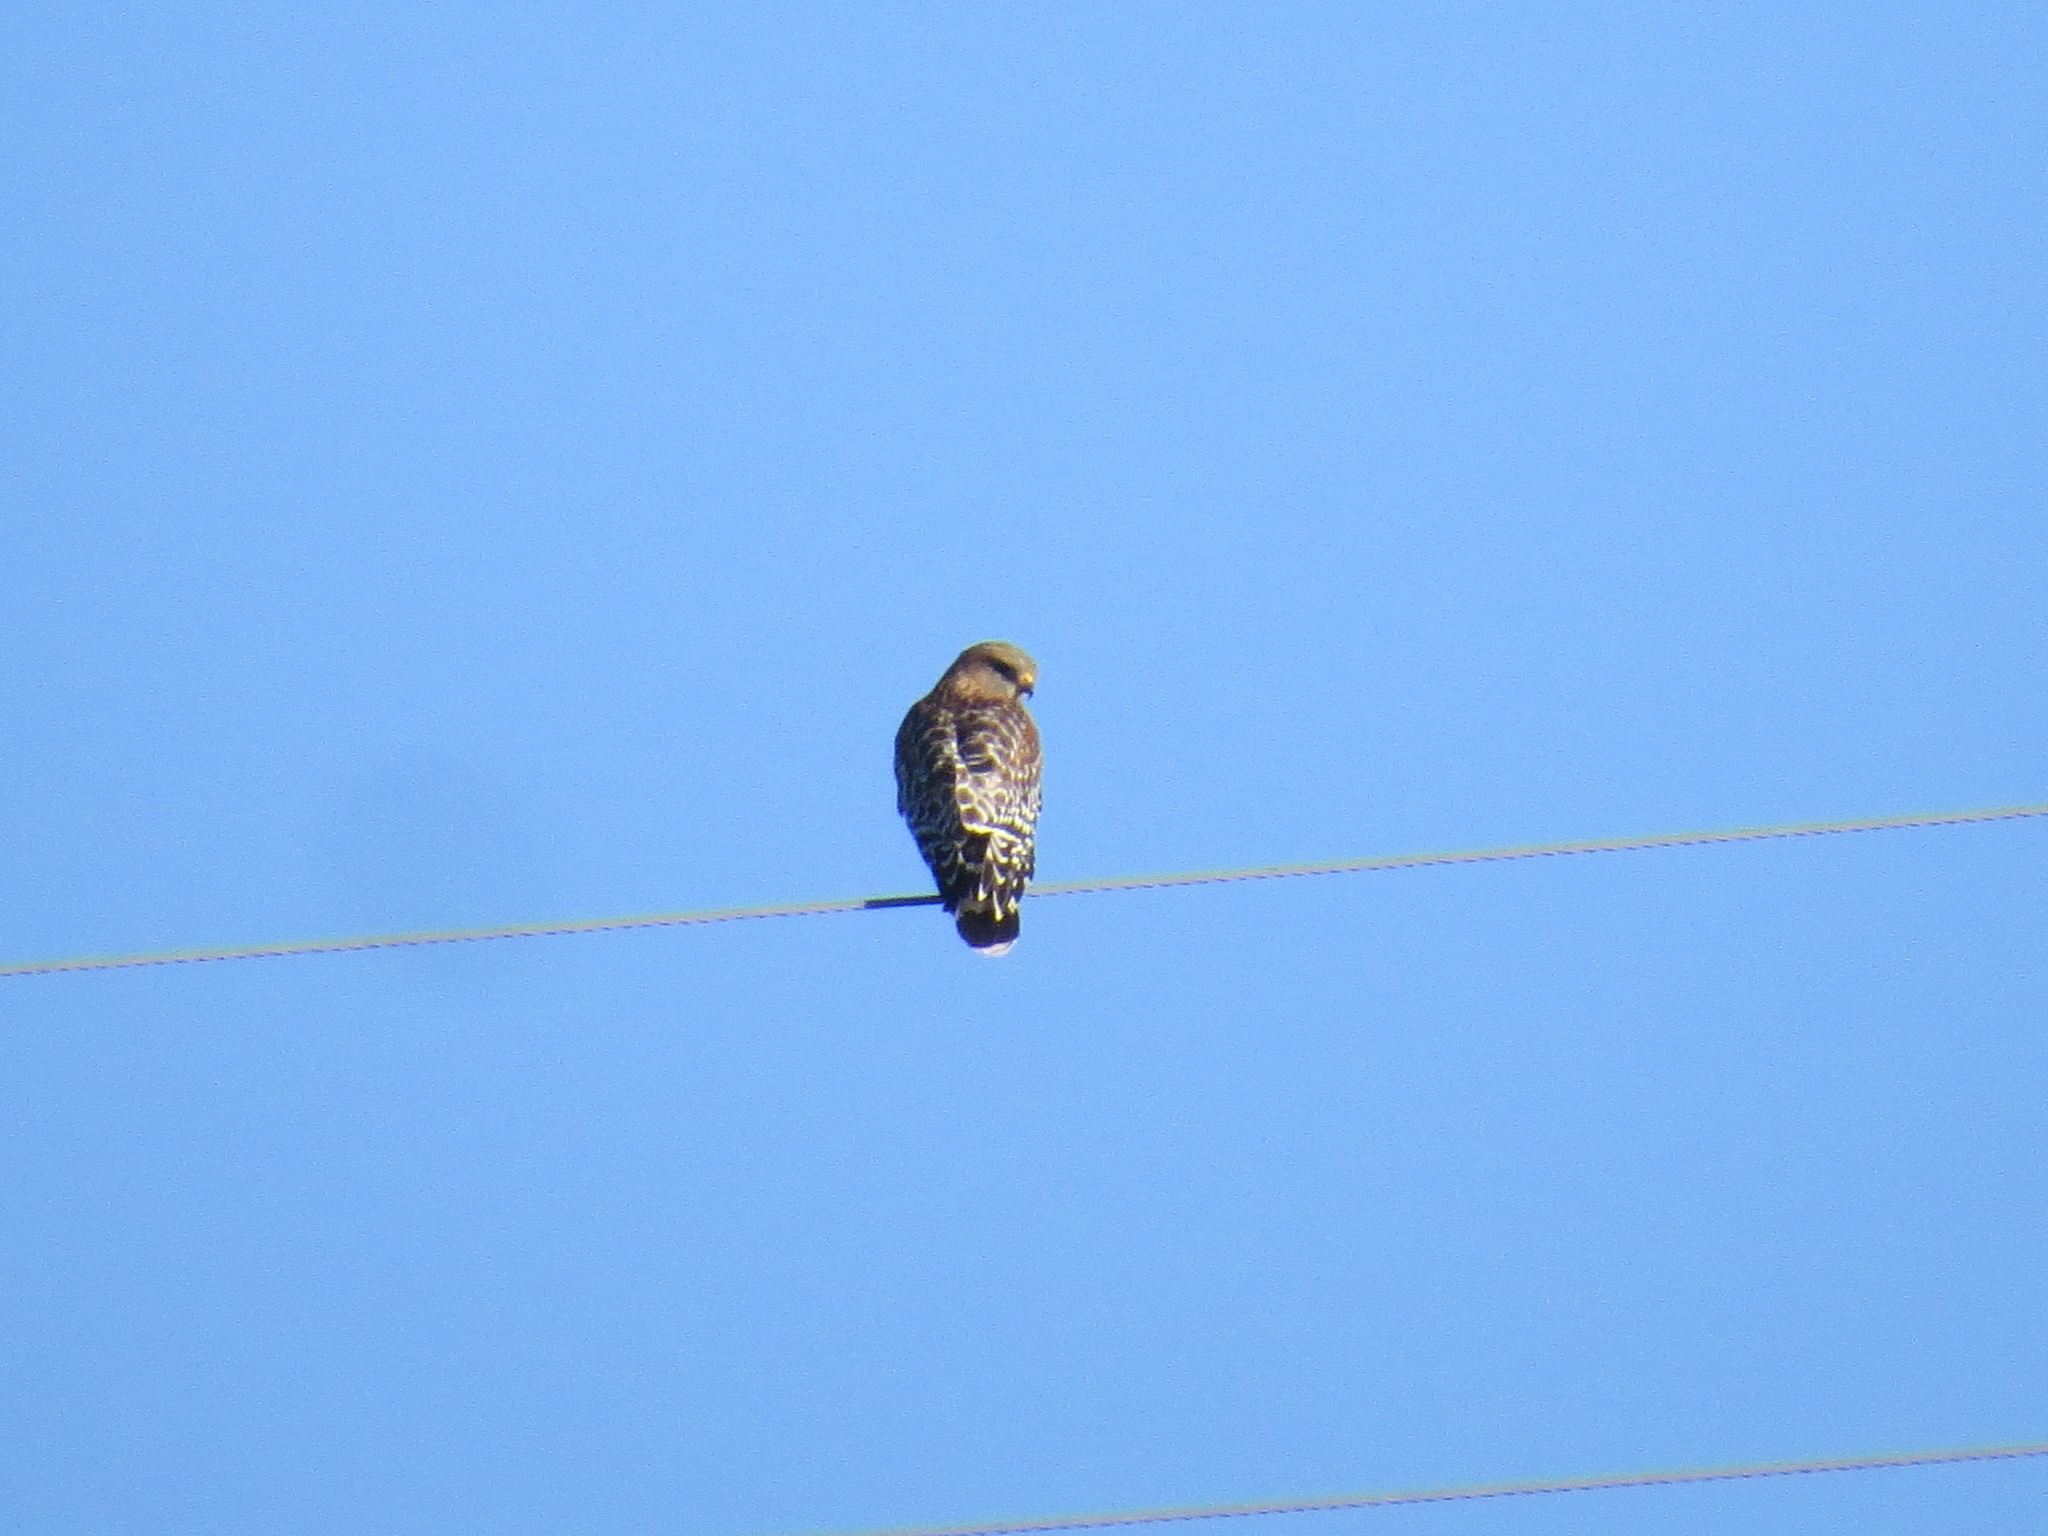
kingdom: Animalia
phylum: Chordata
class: Aves
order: Accipitriformes
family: Accipitridae
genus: Buteo
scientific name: Buteo lineatus
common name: Red-shouldered hawk
